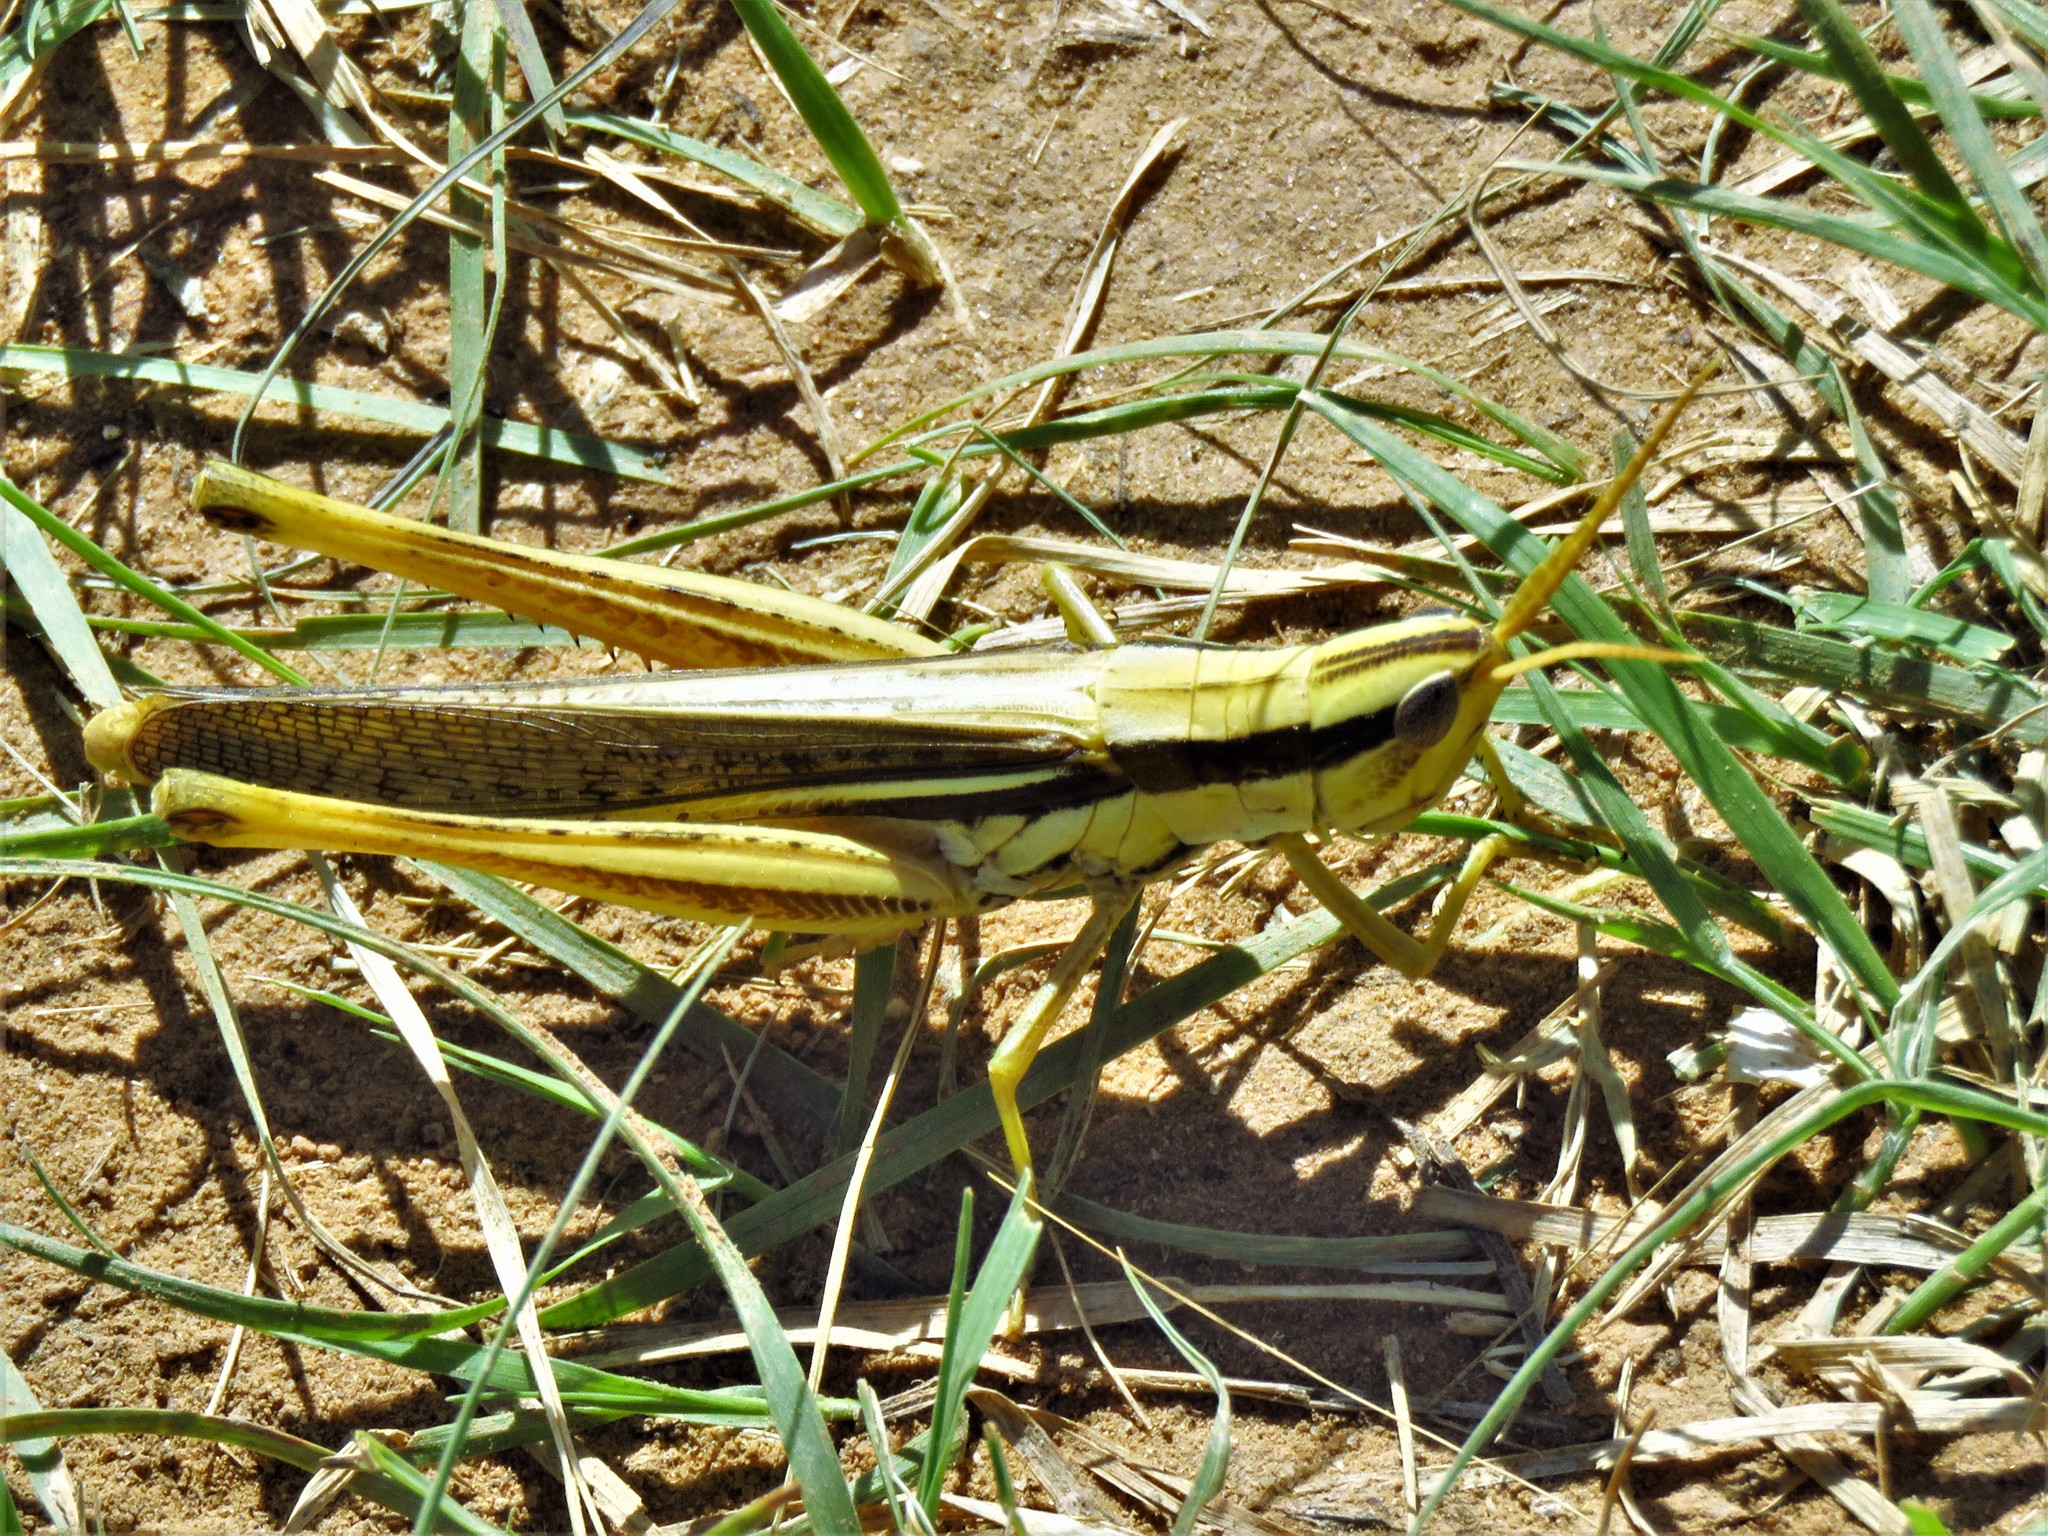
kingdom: Animalia
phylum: Arthropoda
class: Insecta
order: Orthoptera
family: Acrididae
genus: Mermiria
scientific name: Mermiria bivittata
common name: Two-striped mermiria grasshopper
